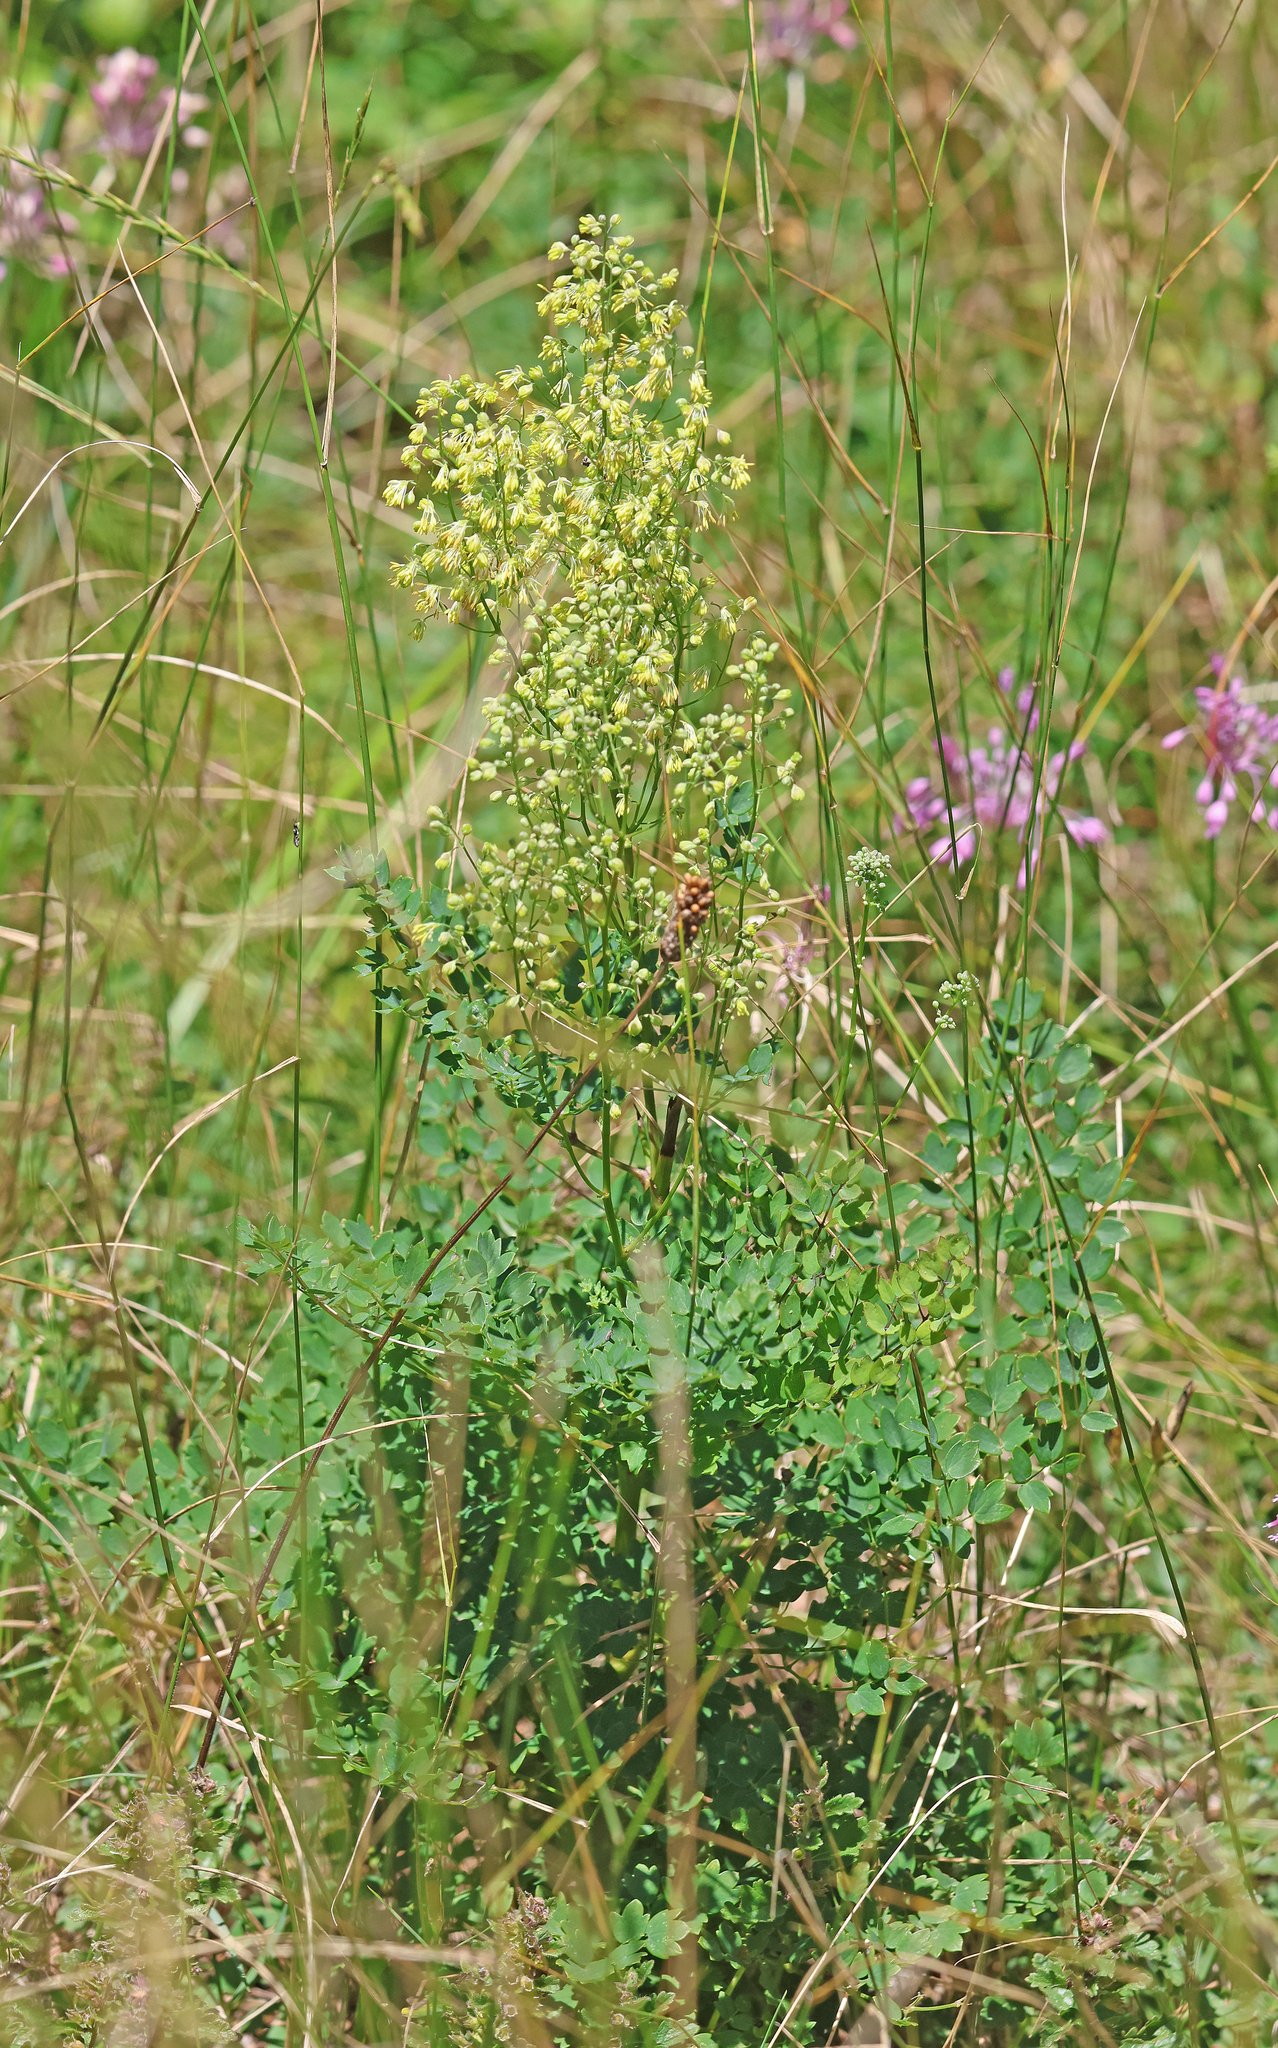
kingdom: Plantae
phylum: Tracheophyta
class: Magnoliopsida
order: Ranunculales
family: Ranunculaceae
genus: Thalictrum
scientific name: Thalictrum minus
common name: Lesser meadow-rue
